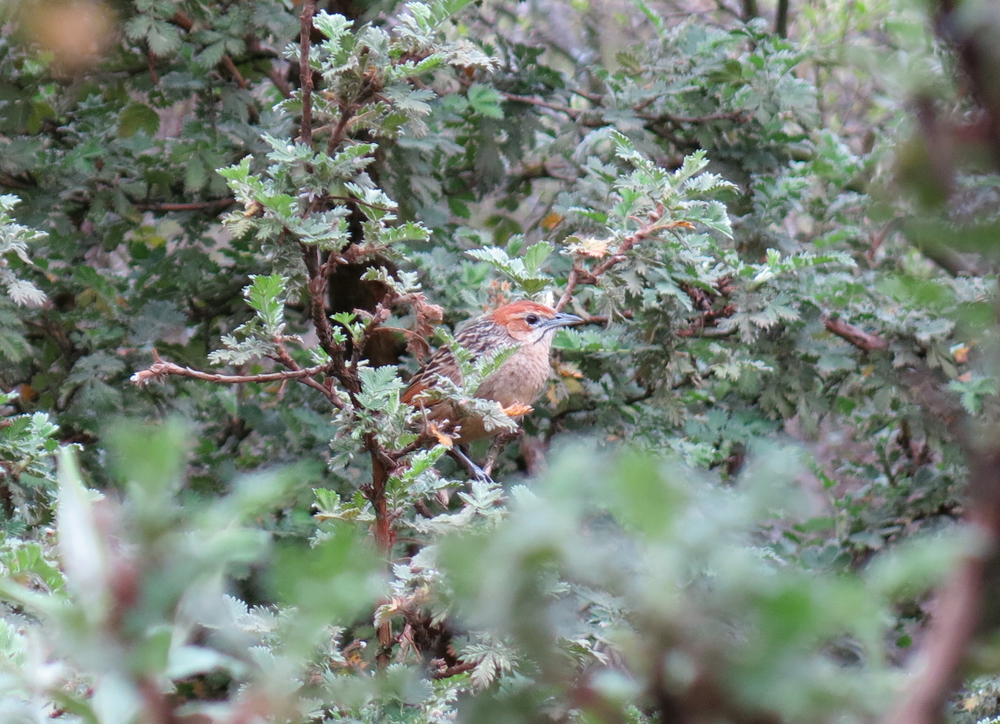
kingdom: Animalia
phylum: Chordata
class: Aves
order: Passeriformes
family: Macrosphenidae
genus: Sphenoeacus
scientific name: Sphenoeacus afer
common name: Cape grassbird
